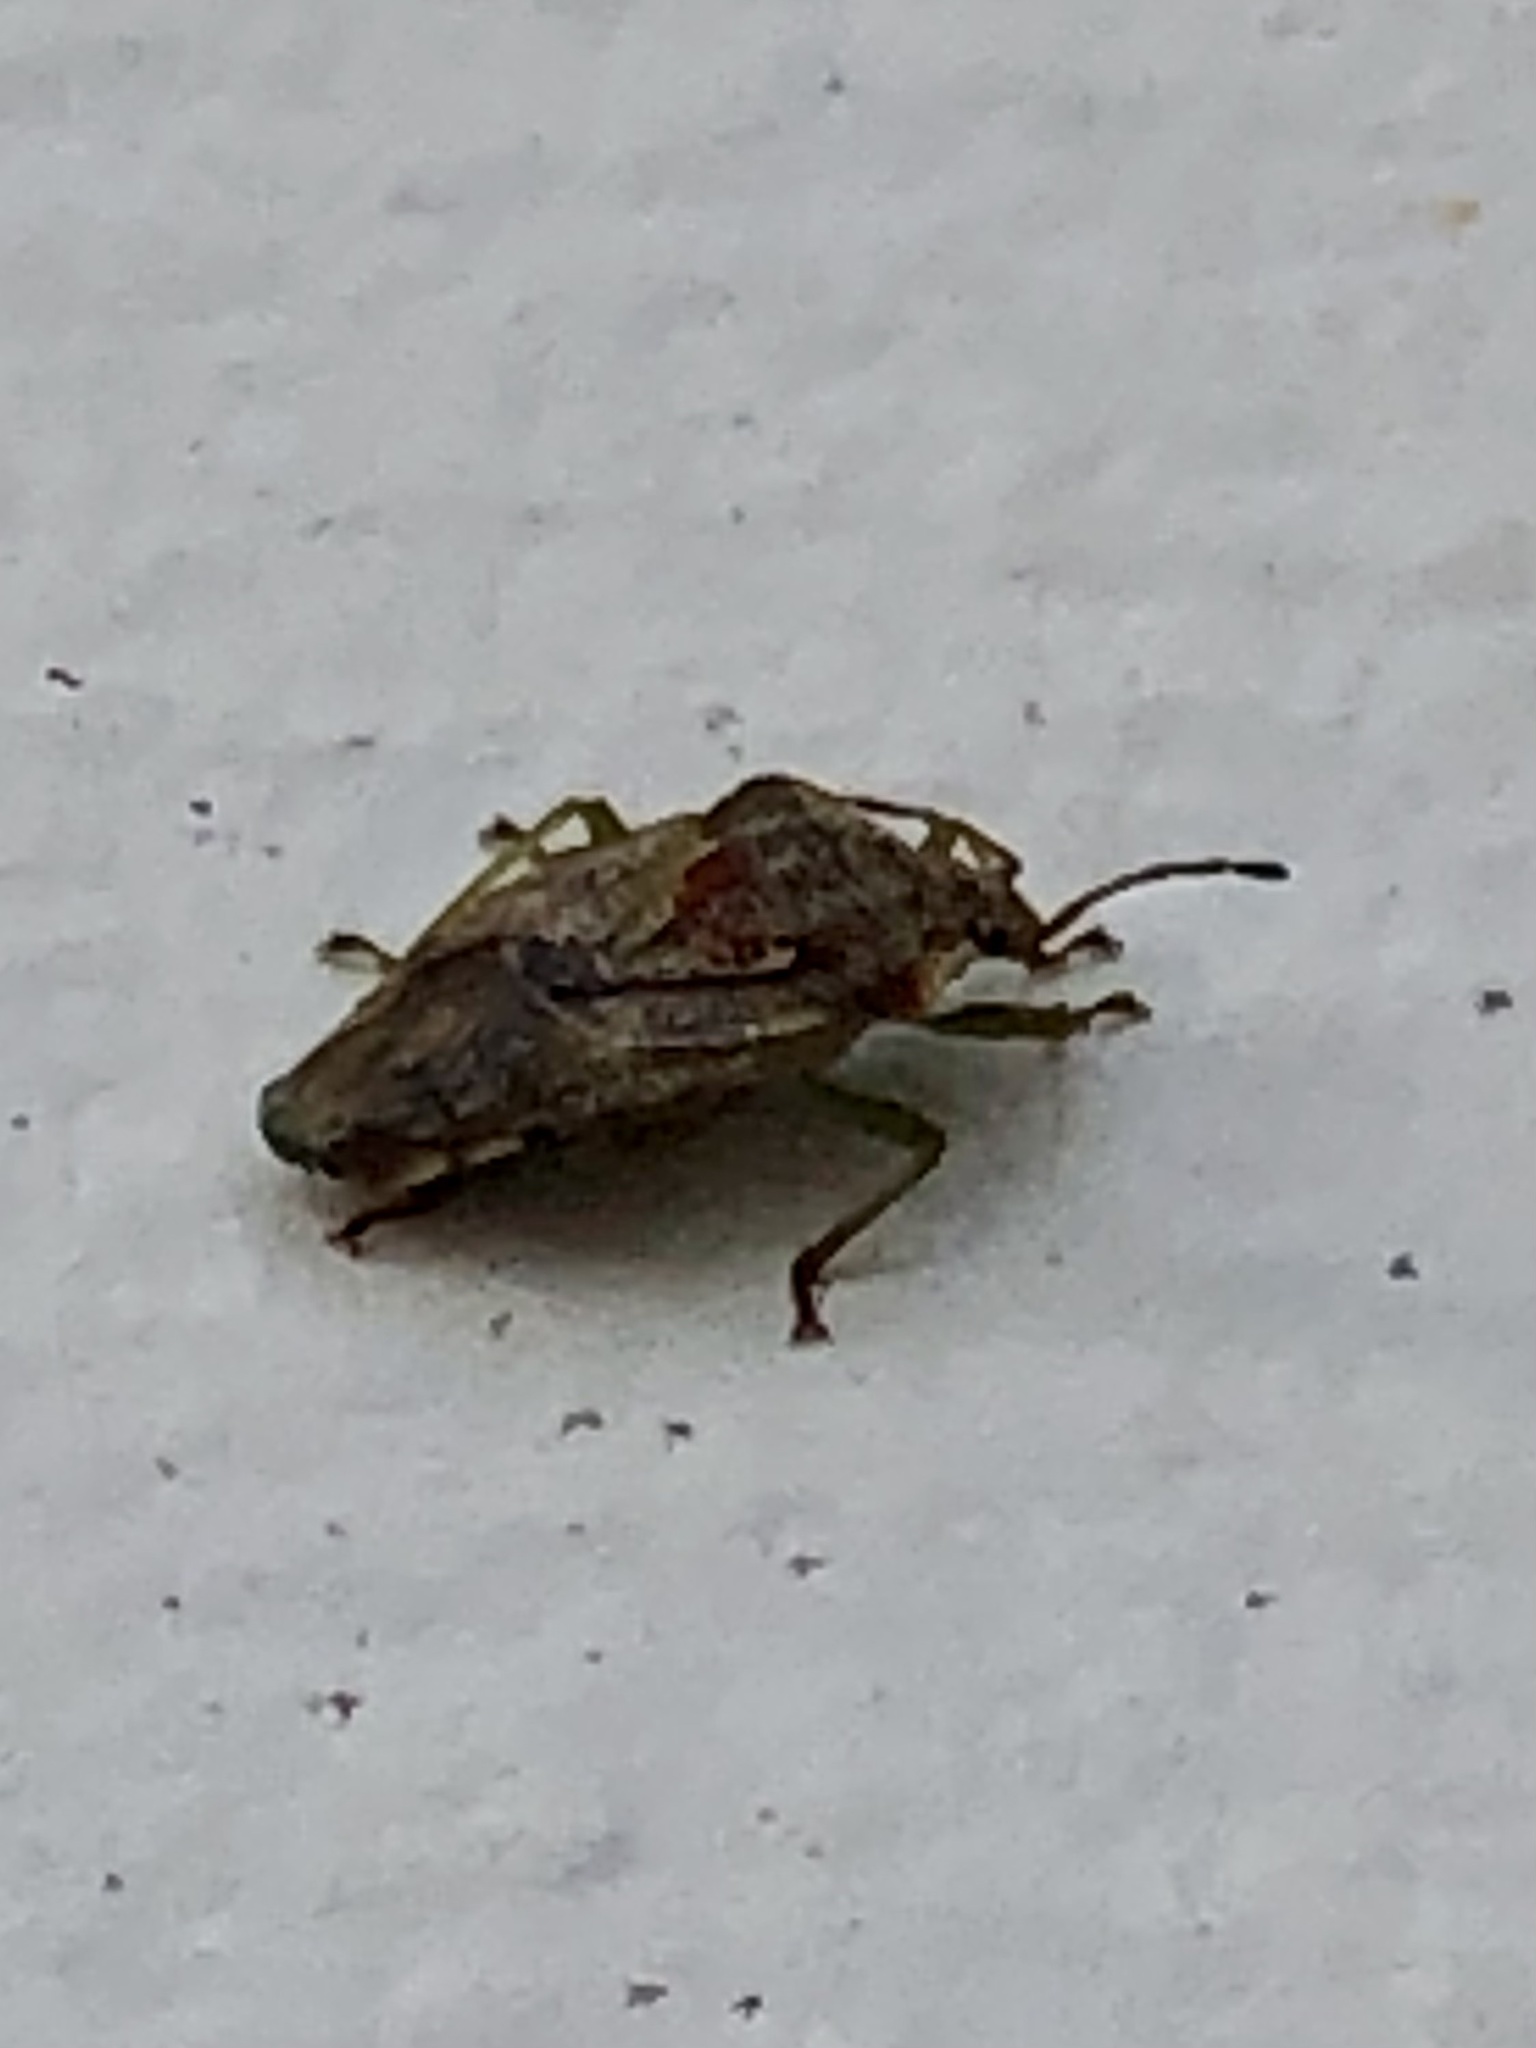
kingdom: Animalia
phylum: Arthropoda
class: Insecta
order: Hemiptera
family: Acanthosomatidae
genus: Elasmucha
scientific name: Elasmucha lateralis
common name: Shield bug
